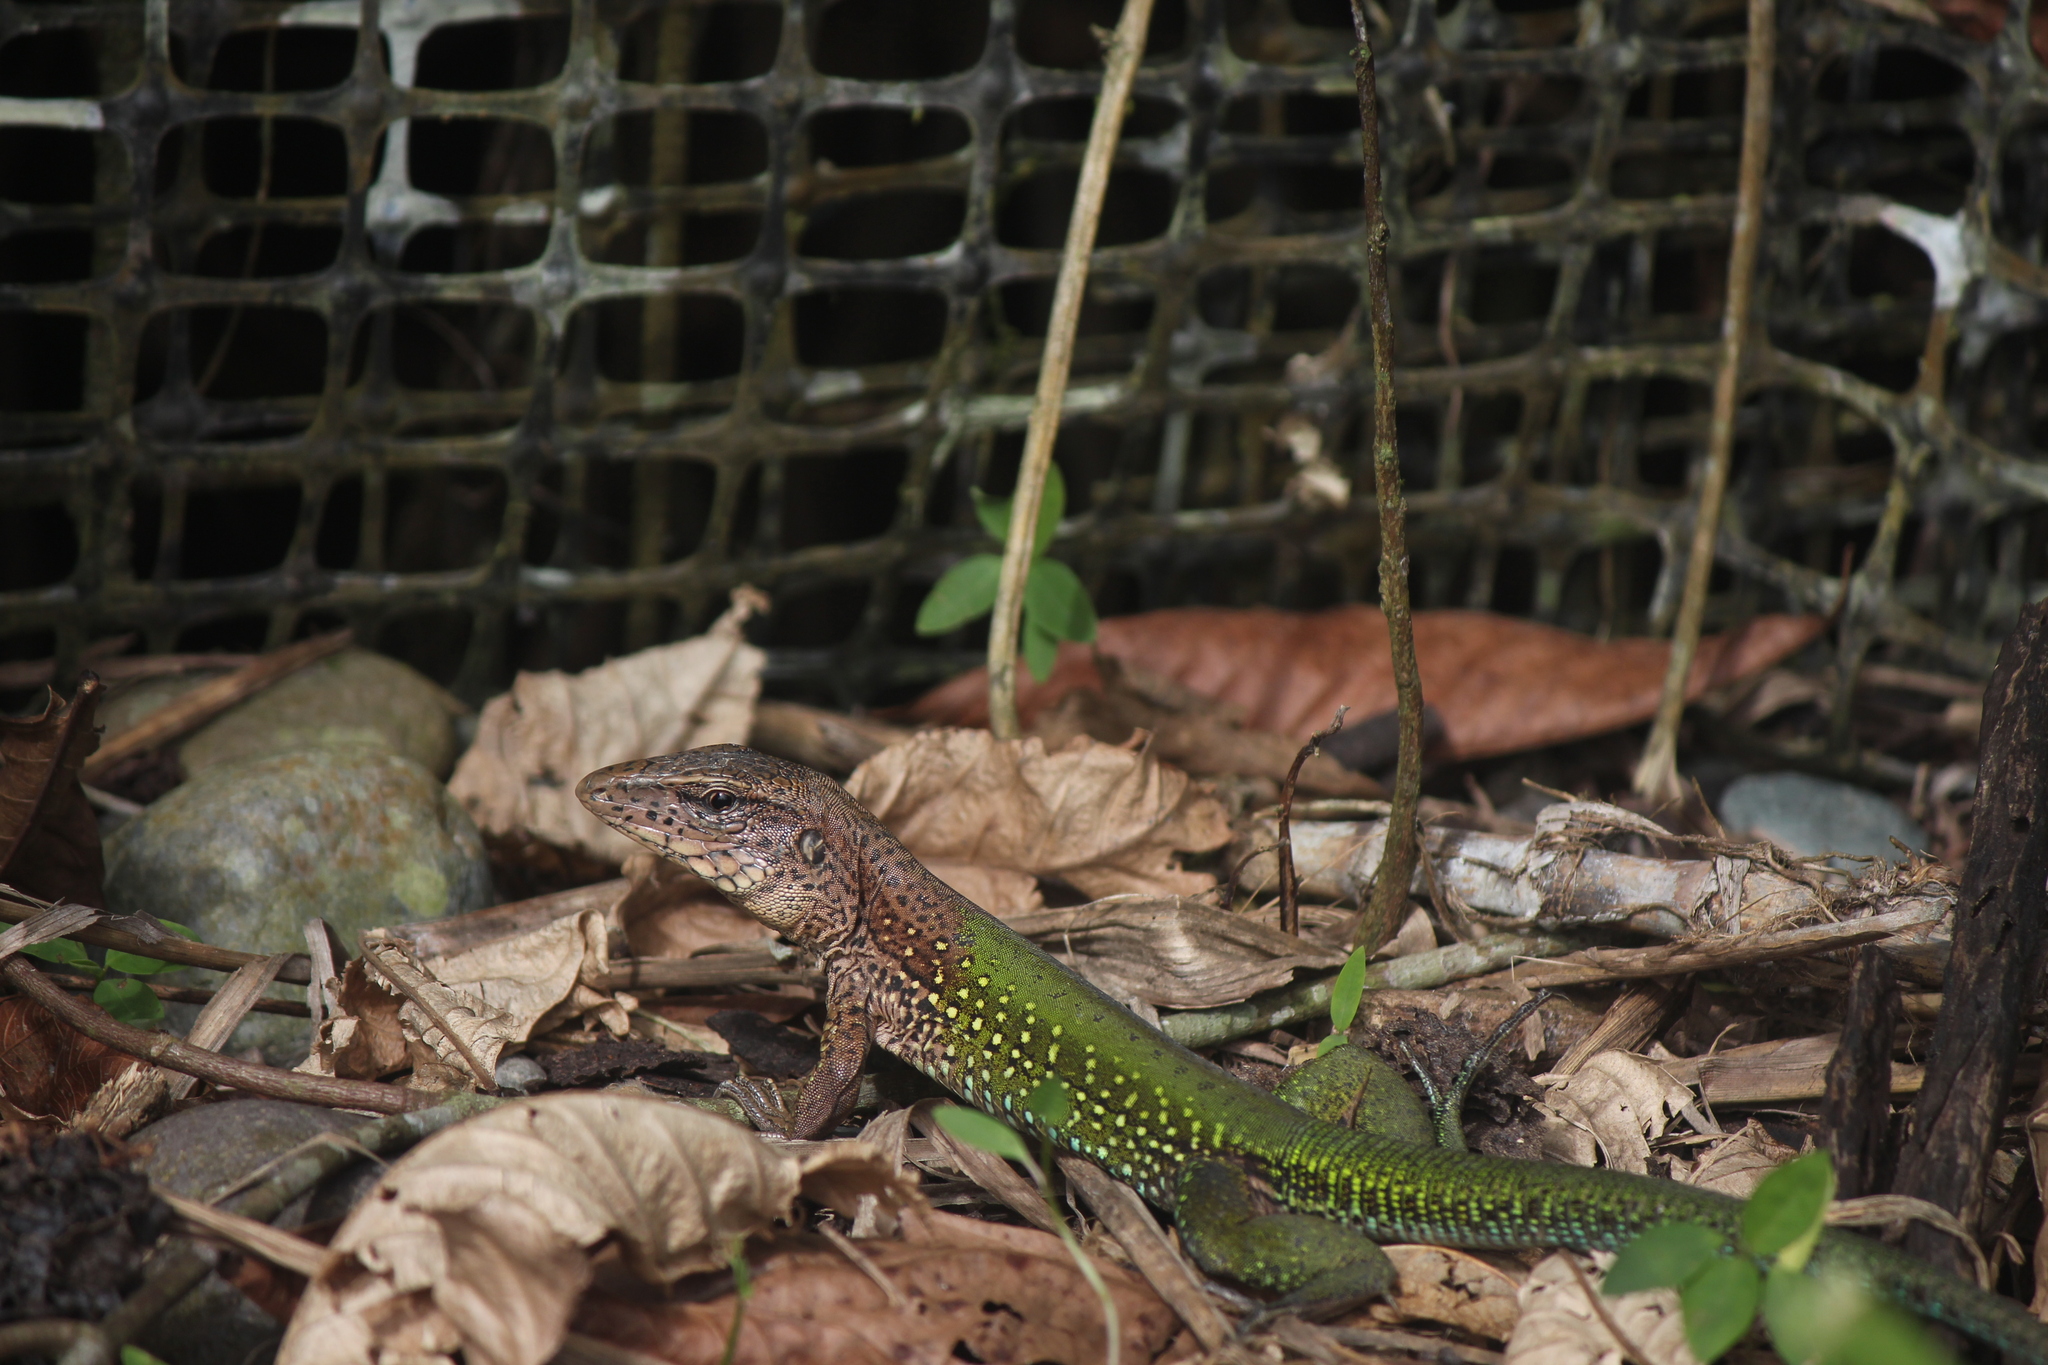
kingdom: Animalia
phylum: Chordata
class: Squamata
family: Teiidae
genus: Ameiva
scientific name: Ameiva ameiva
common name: Giant ameiva
